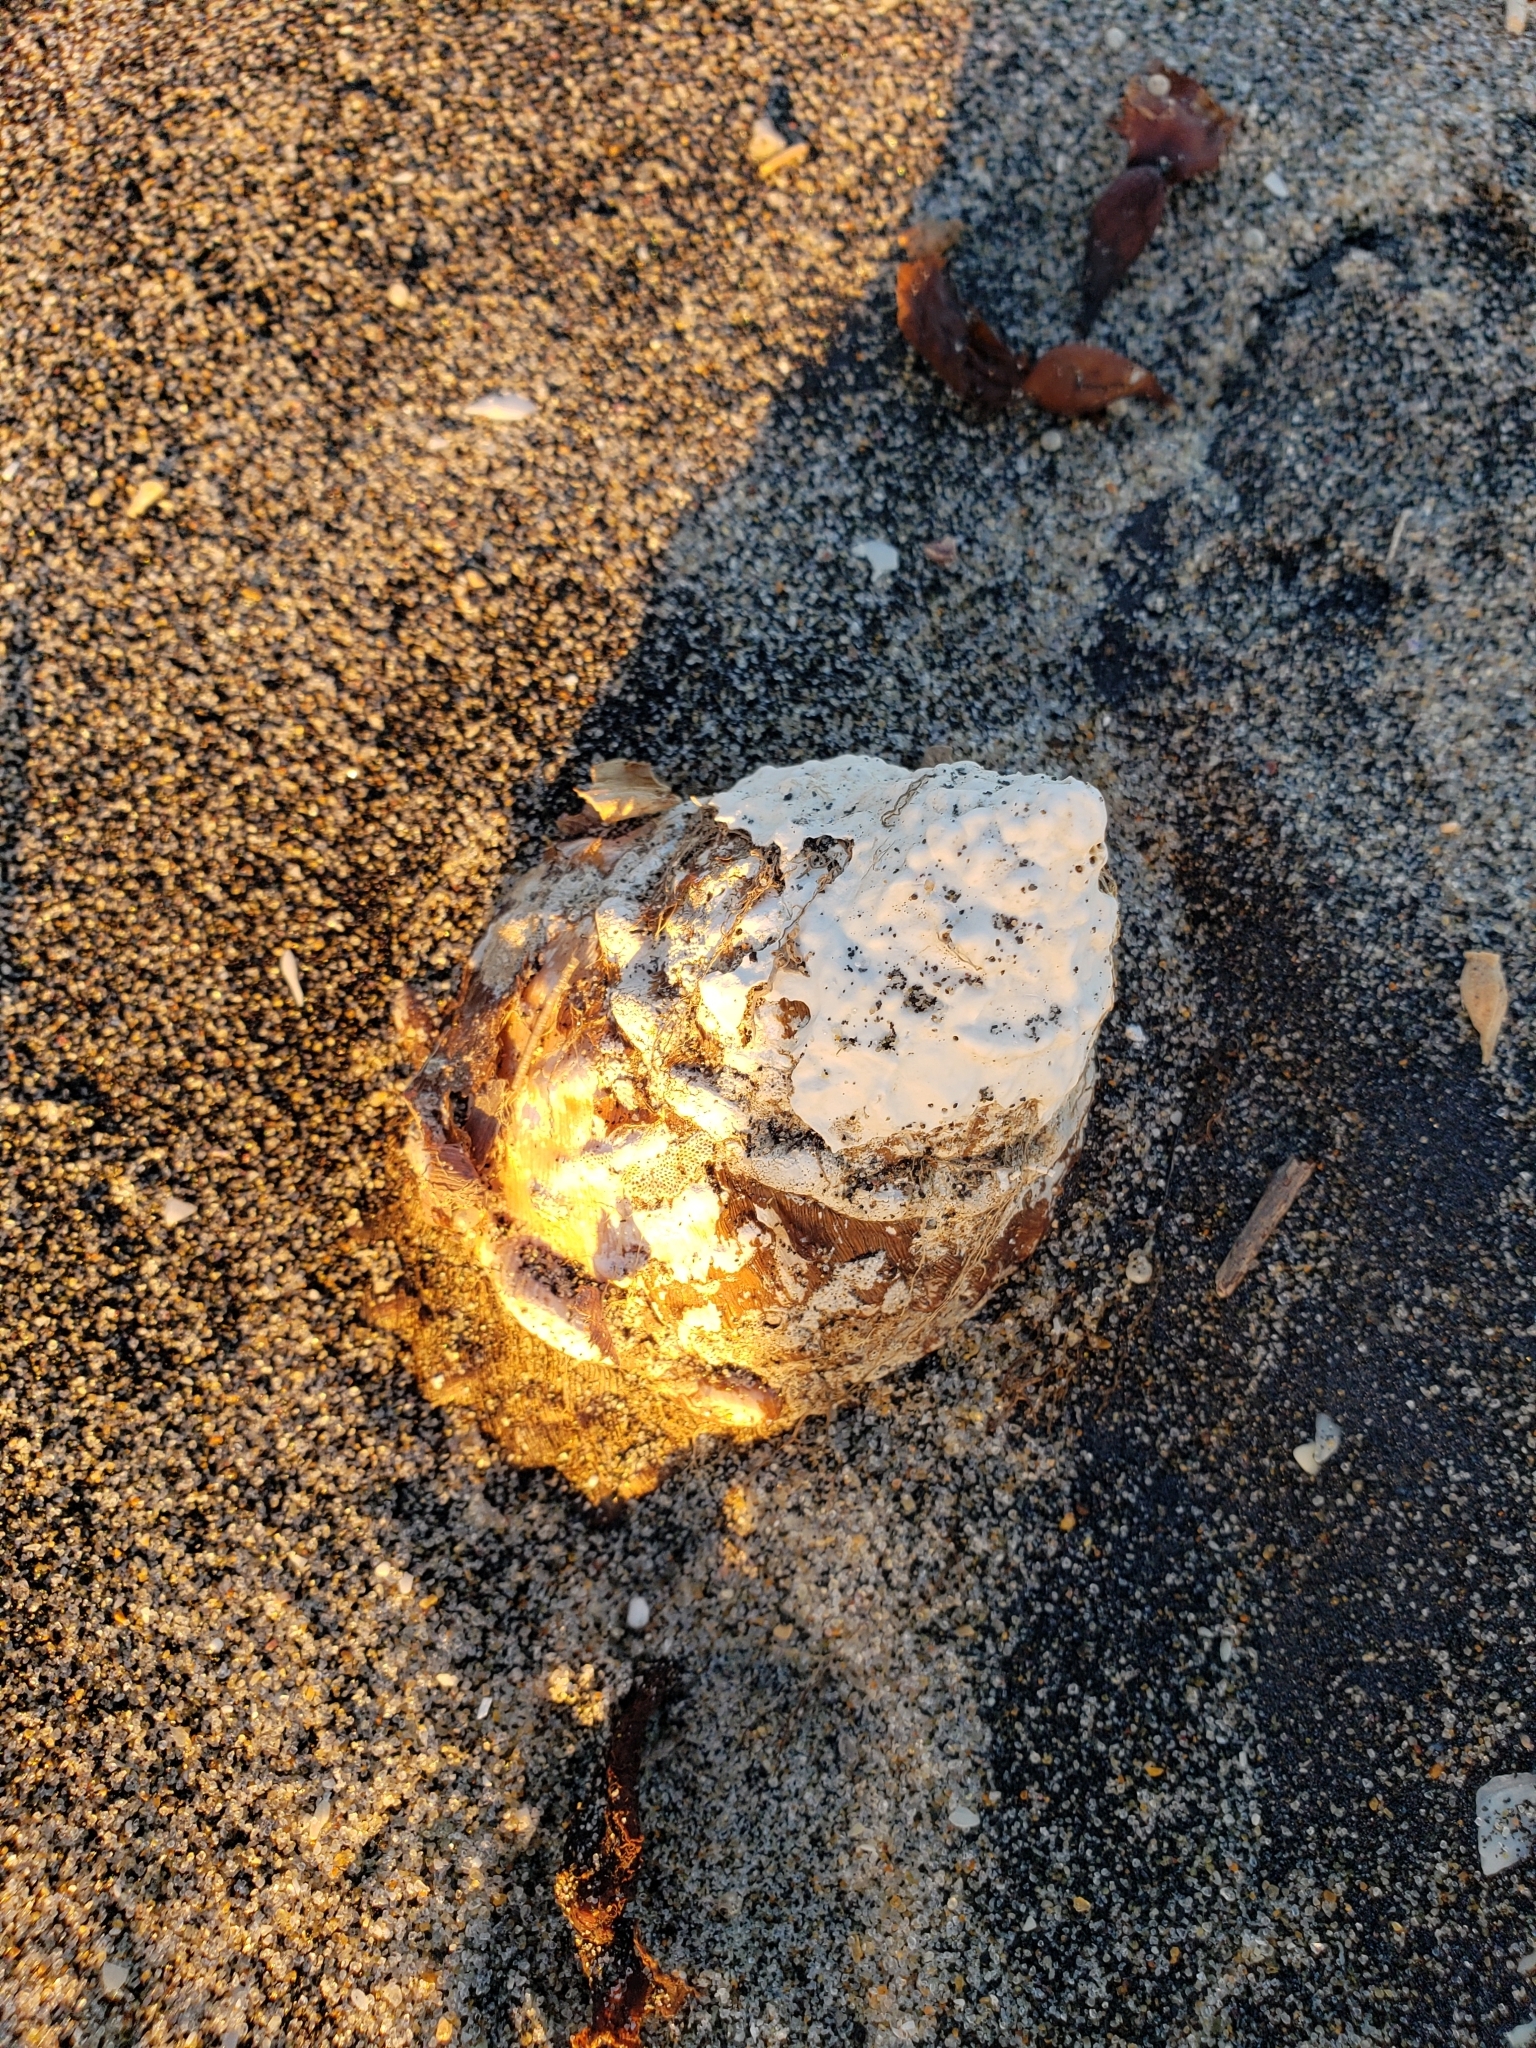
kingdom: Animalia
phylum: Mollusca
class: Gastropoda
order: Trochida
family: Turbinidae
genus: Megastraea
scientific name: Megastraea undosa
